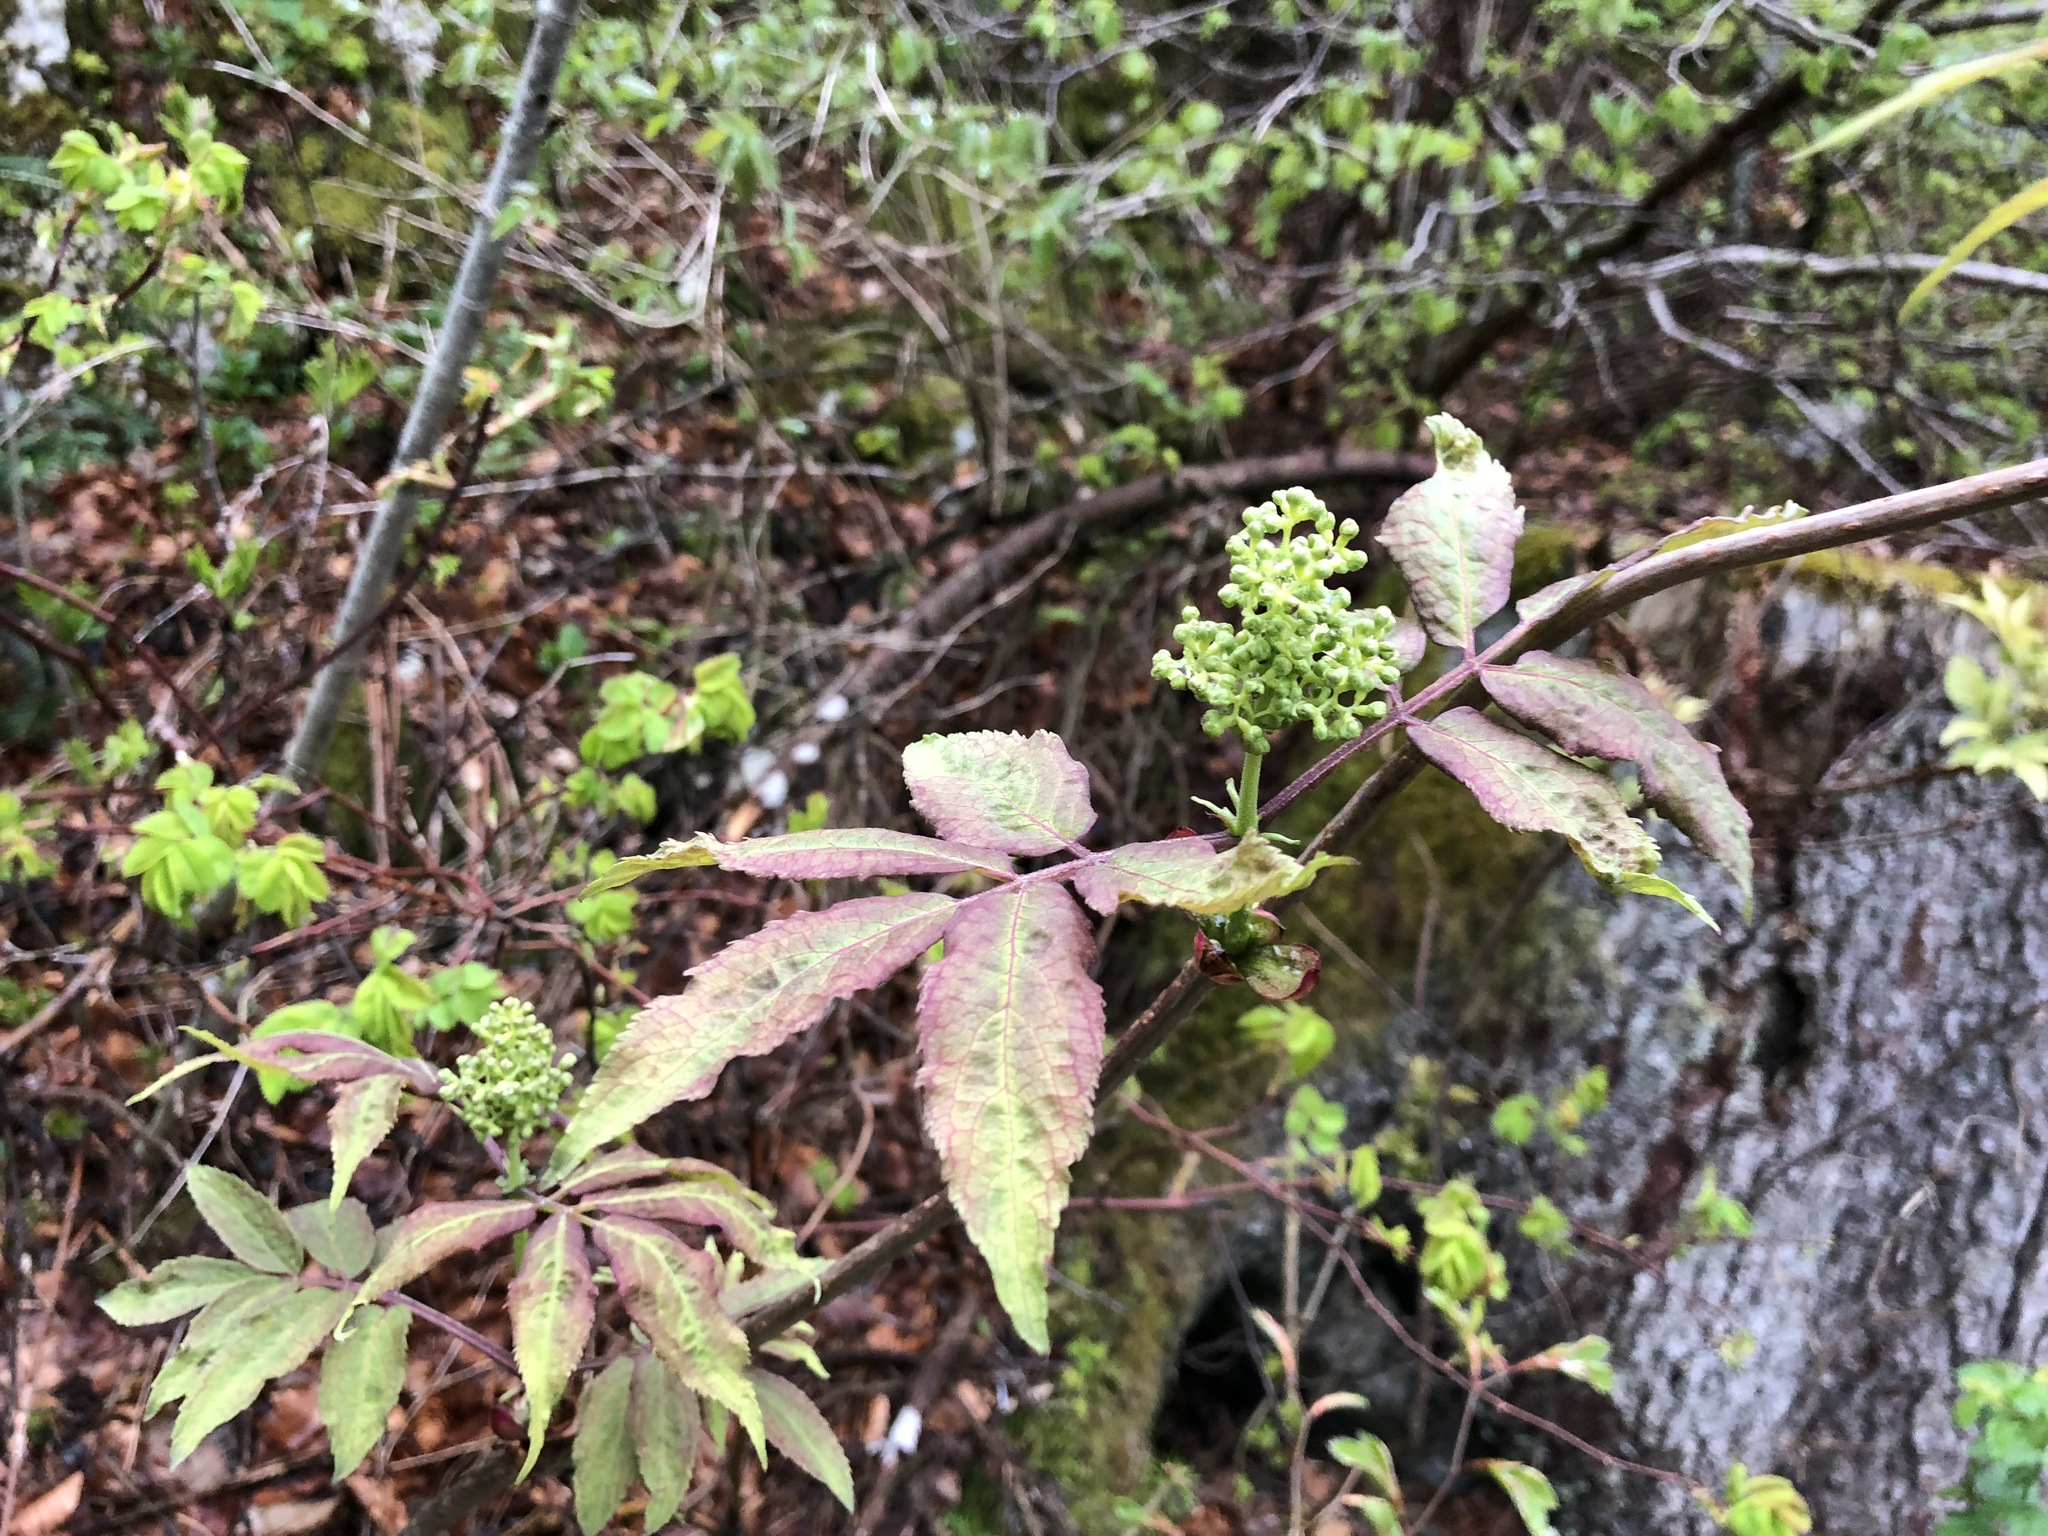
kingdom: Plantae
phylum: Tracheophyta
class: Magnoliopsida
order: Dipsacales
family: Viburnaceae
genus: Sambucus
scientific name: Sambucus racemosa
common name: Red-berried elder
